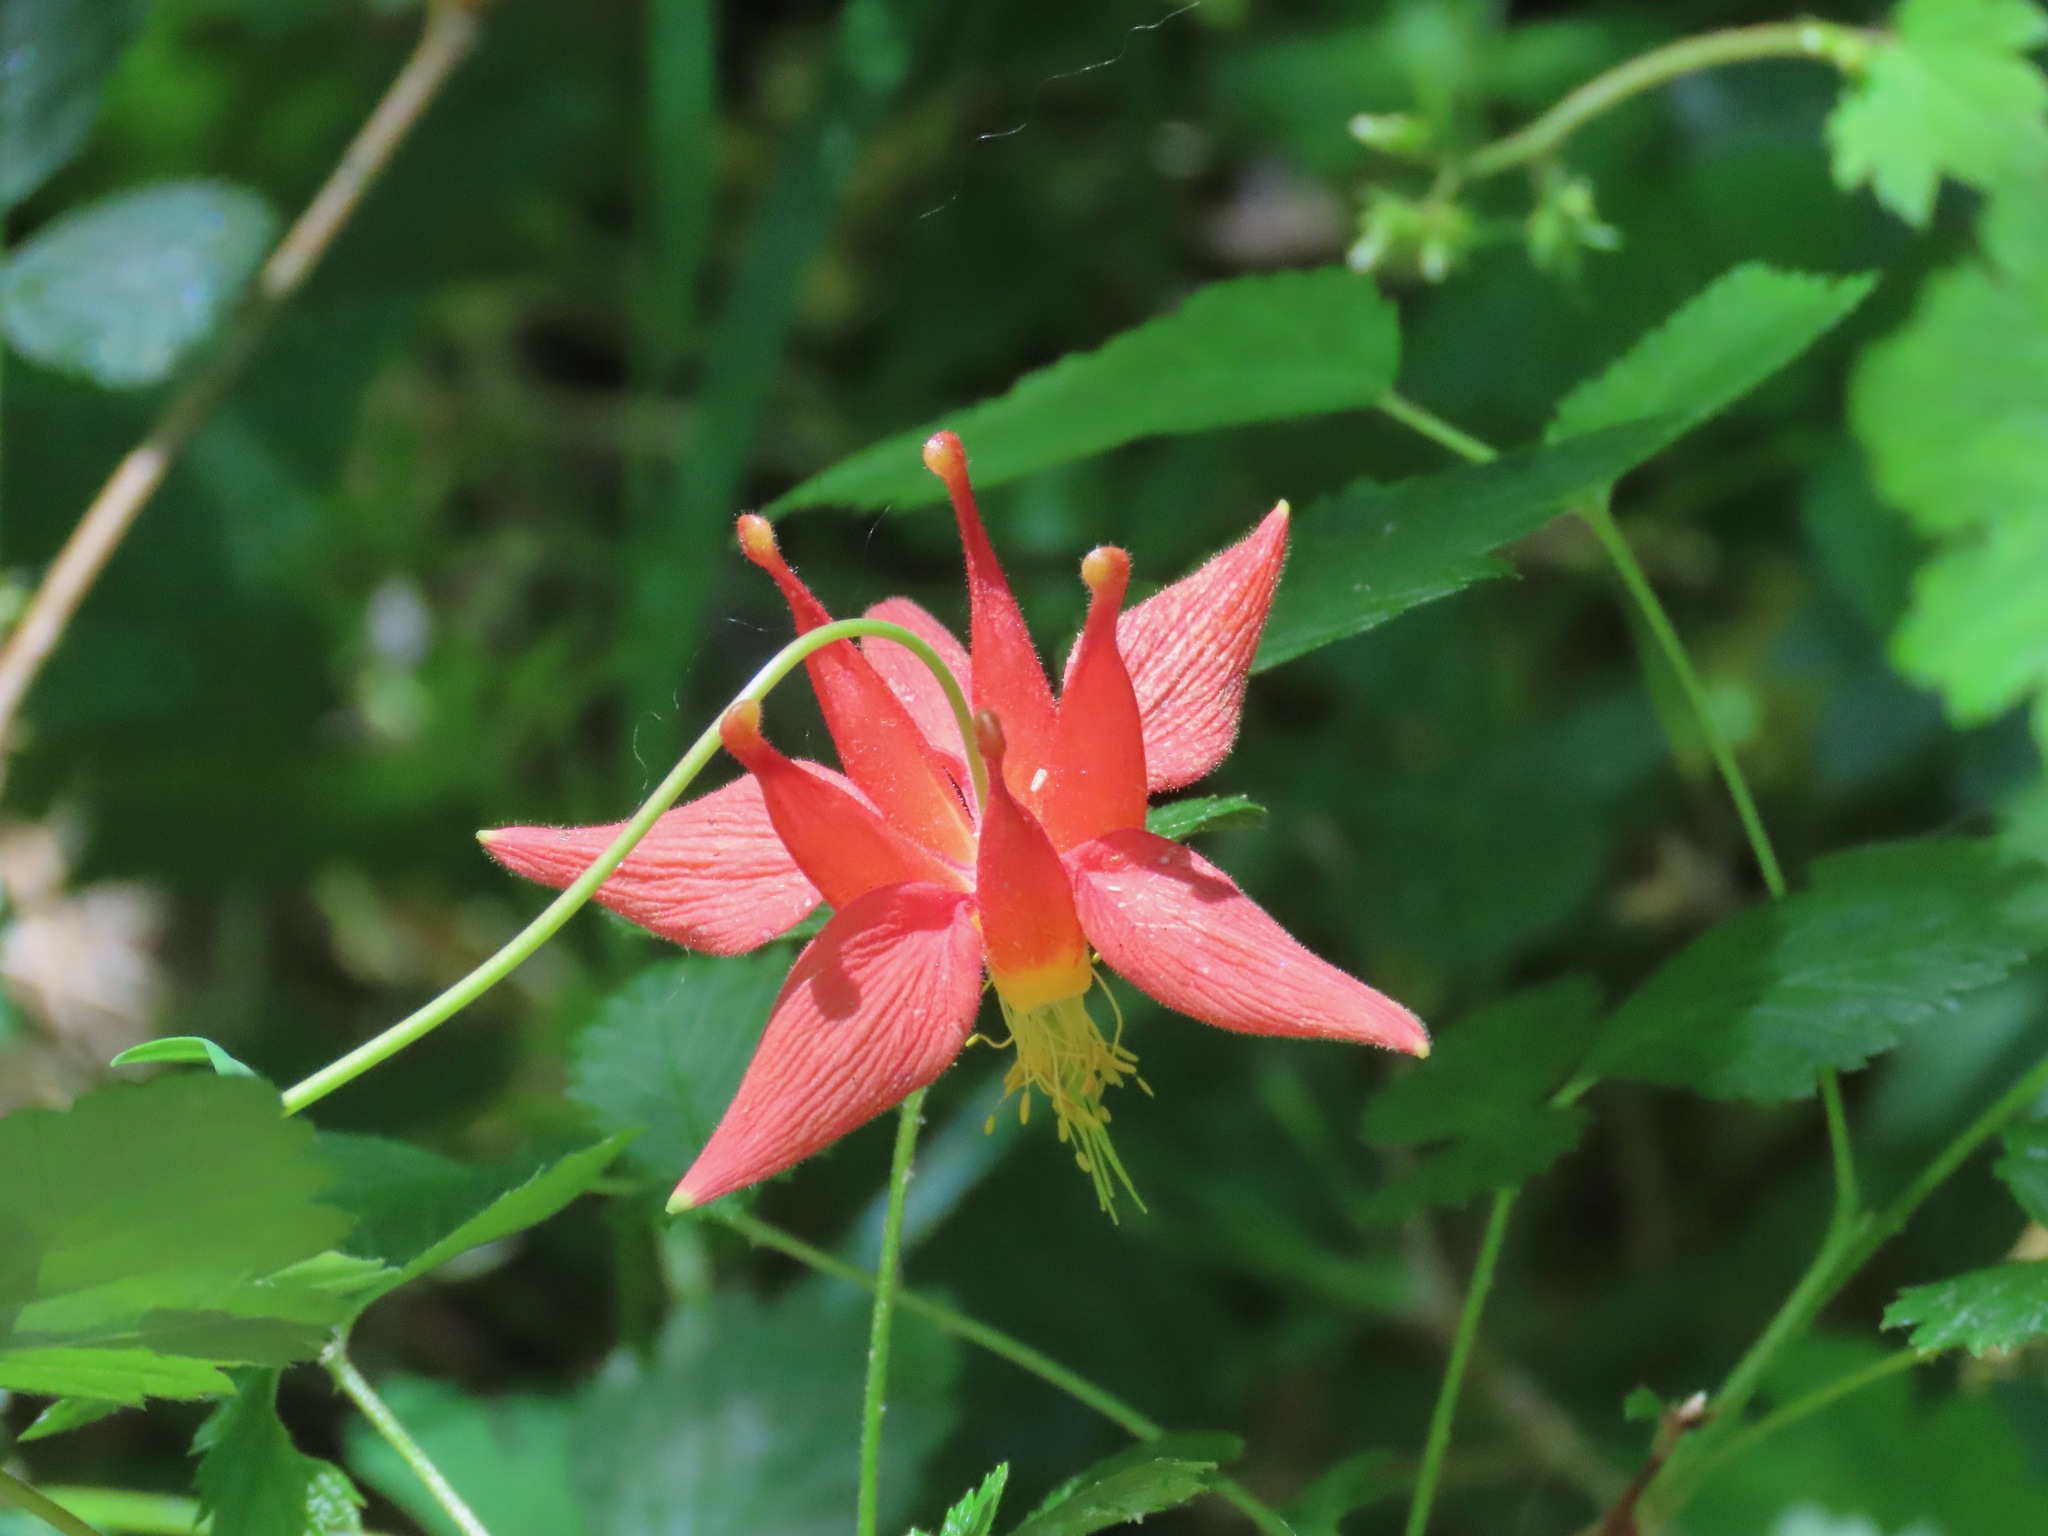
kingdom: Plantae
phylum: Tracheophyta
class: Magnoliopsida
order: Ranunculales
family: Ranunculaceae
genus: Aquilegia
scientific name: Aquilegia formosa
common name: Sitka columbine
